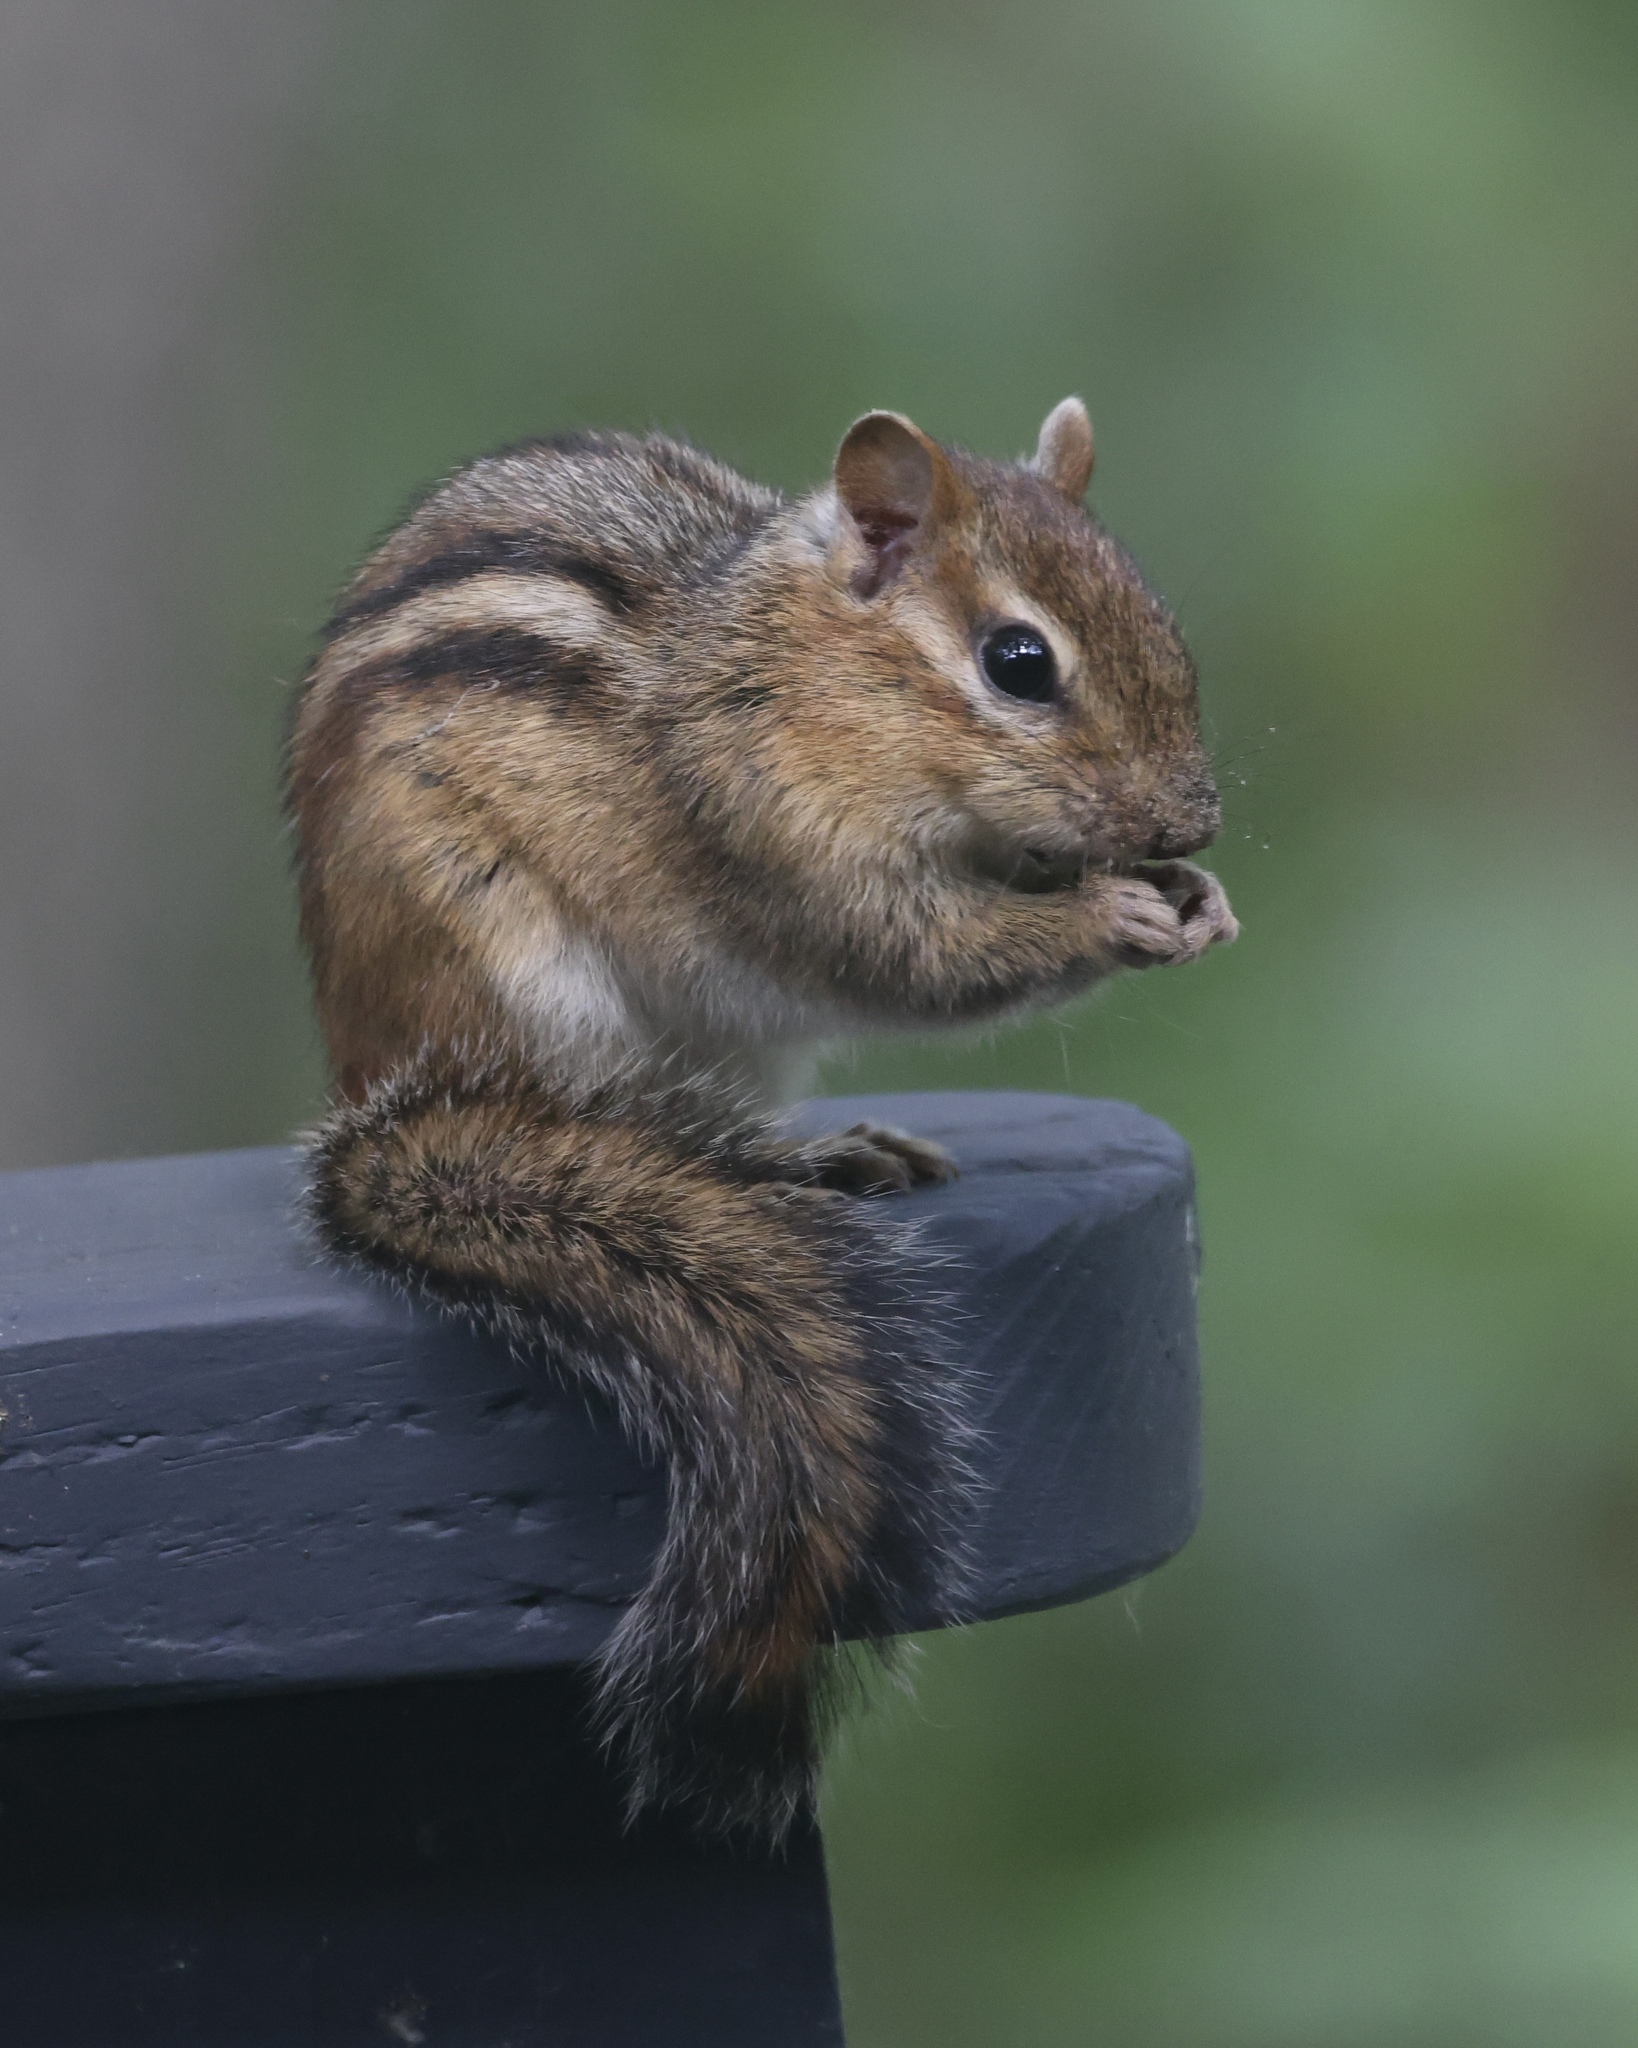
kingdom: Animalia
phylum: Chordata
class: Mammalia
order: Rodentia
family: Sciuridae
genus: Tamias
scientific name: Tamias striatus
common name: Eastern chipmunk
